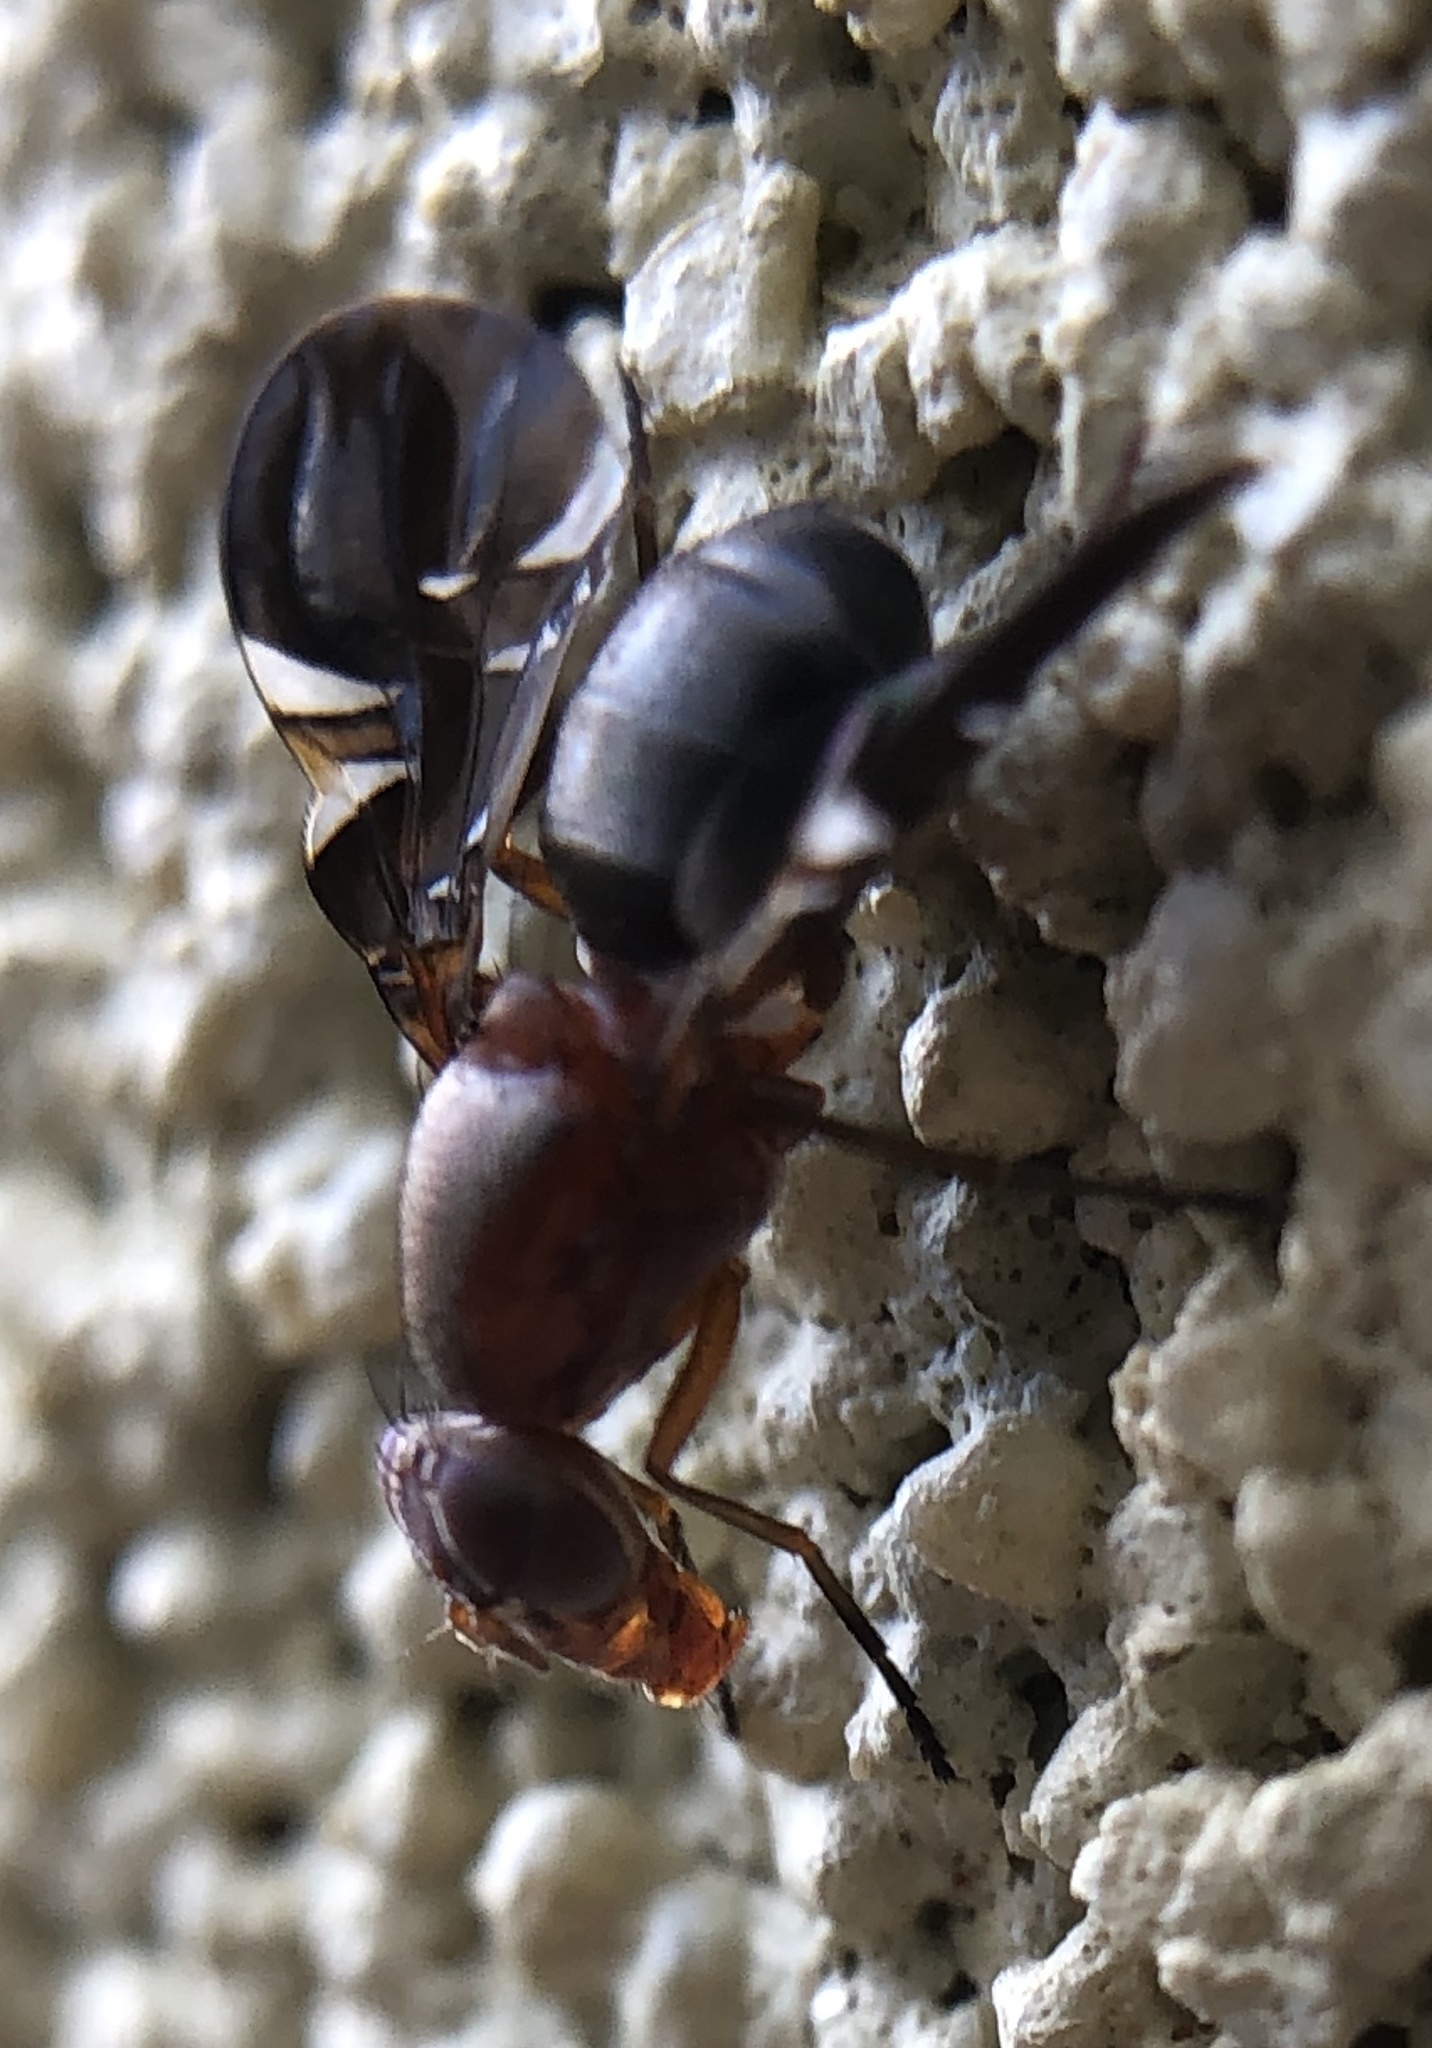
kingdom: Animalia
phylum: Arthropoda
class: Insecta
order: Diptera
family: Ulidiidae
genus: Delphinia
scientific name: Delphinia picta
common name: Common picture-winged fly
